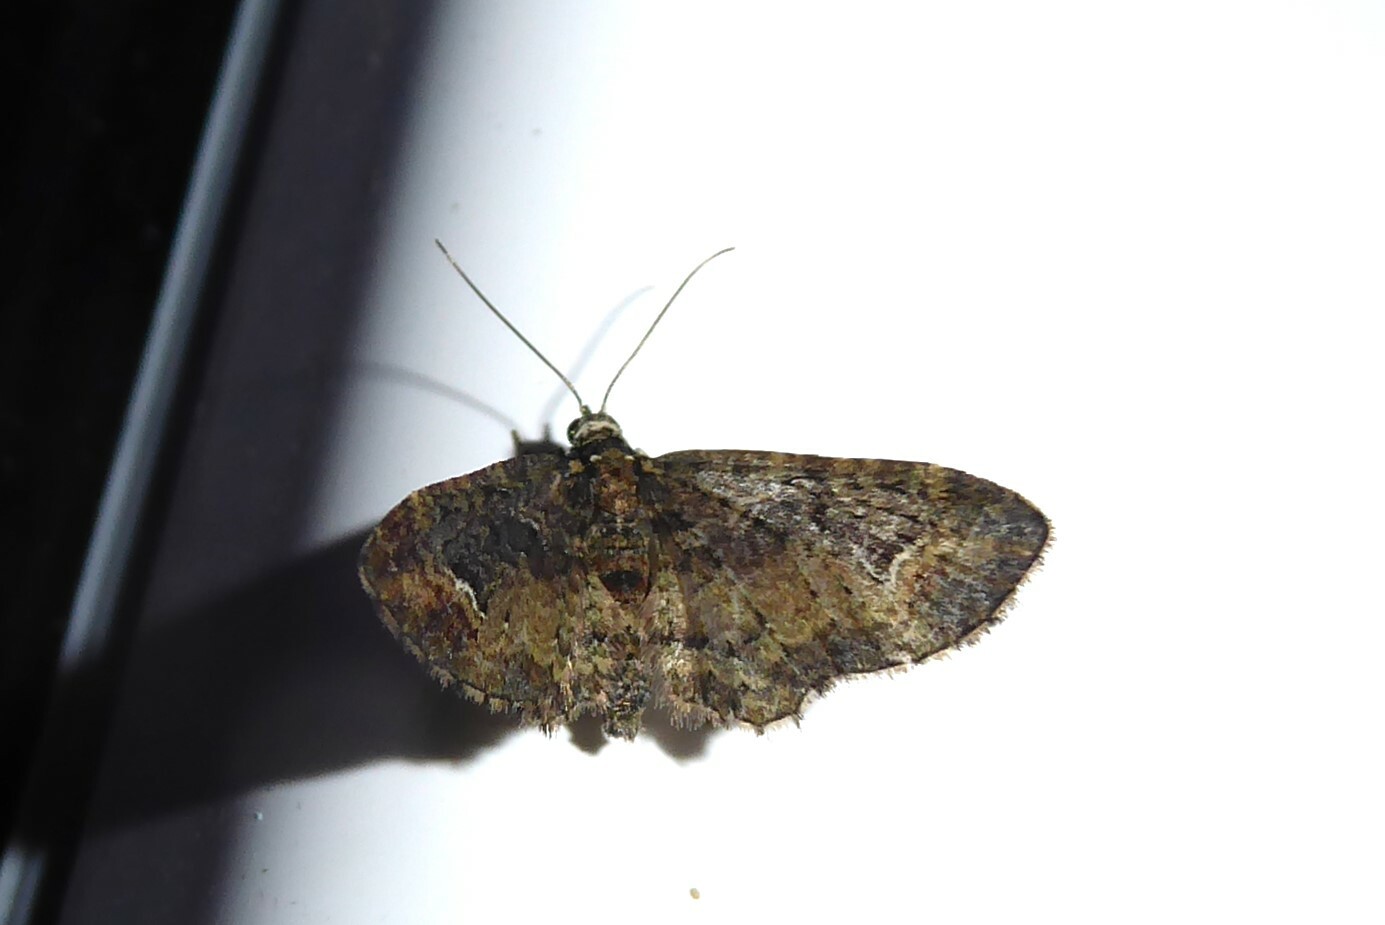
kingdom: Animalia
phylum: Arthropoda
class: Insecta
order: Lepidoptera
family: Geometridae
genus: Pasiphilodes
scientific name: Pasiphilodes testulata
